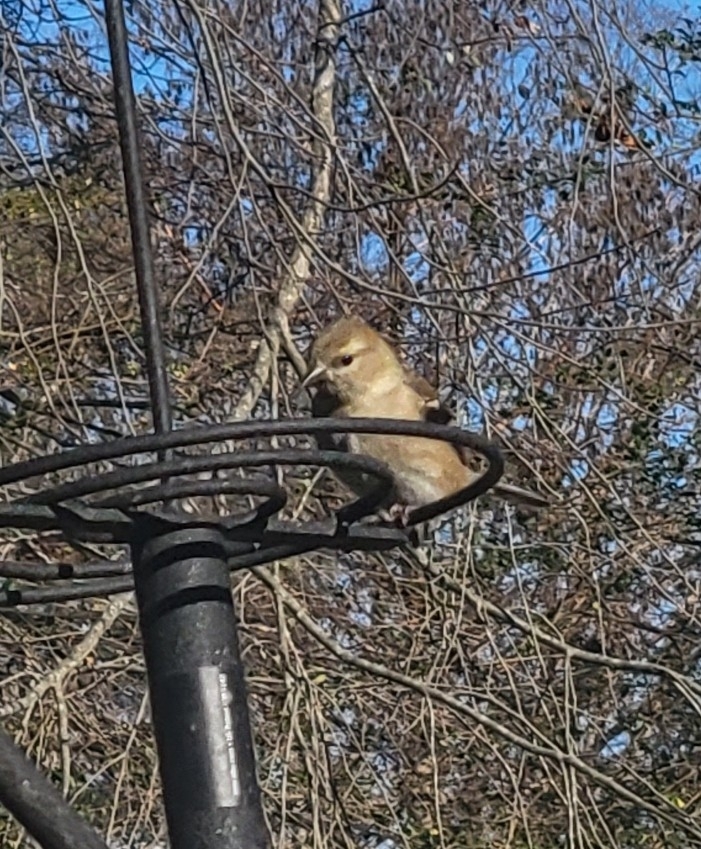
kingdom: Animalia
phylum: Chordata
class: Aves
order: Passeriformes
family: Fringillidae
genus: Spinus
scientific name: Spinus tristis
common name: American goldfinch
